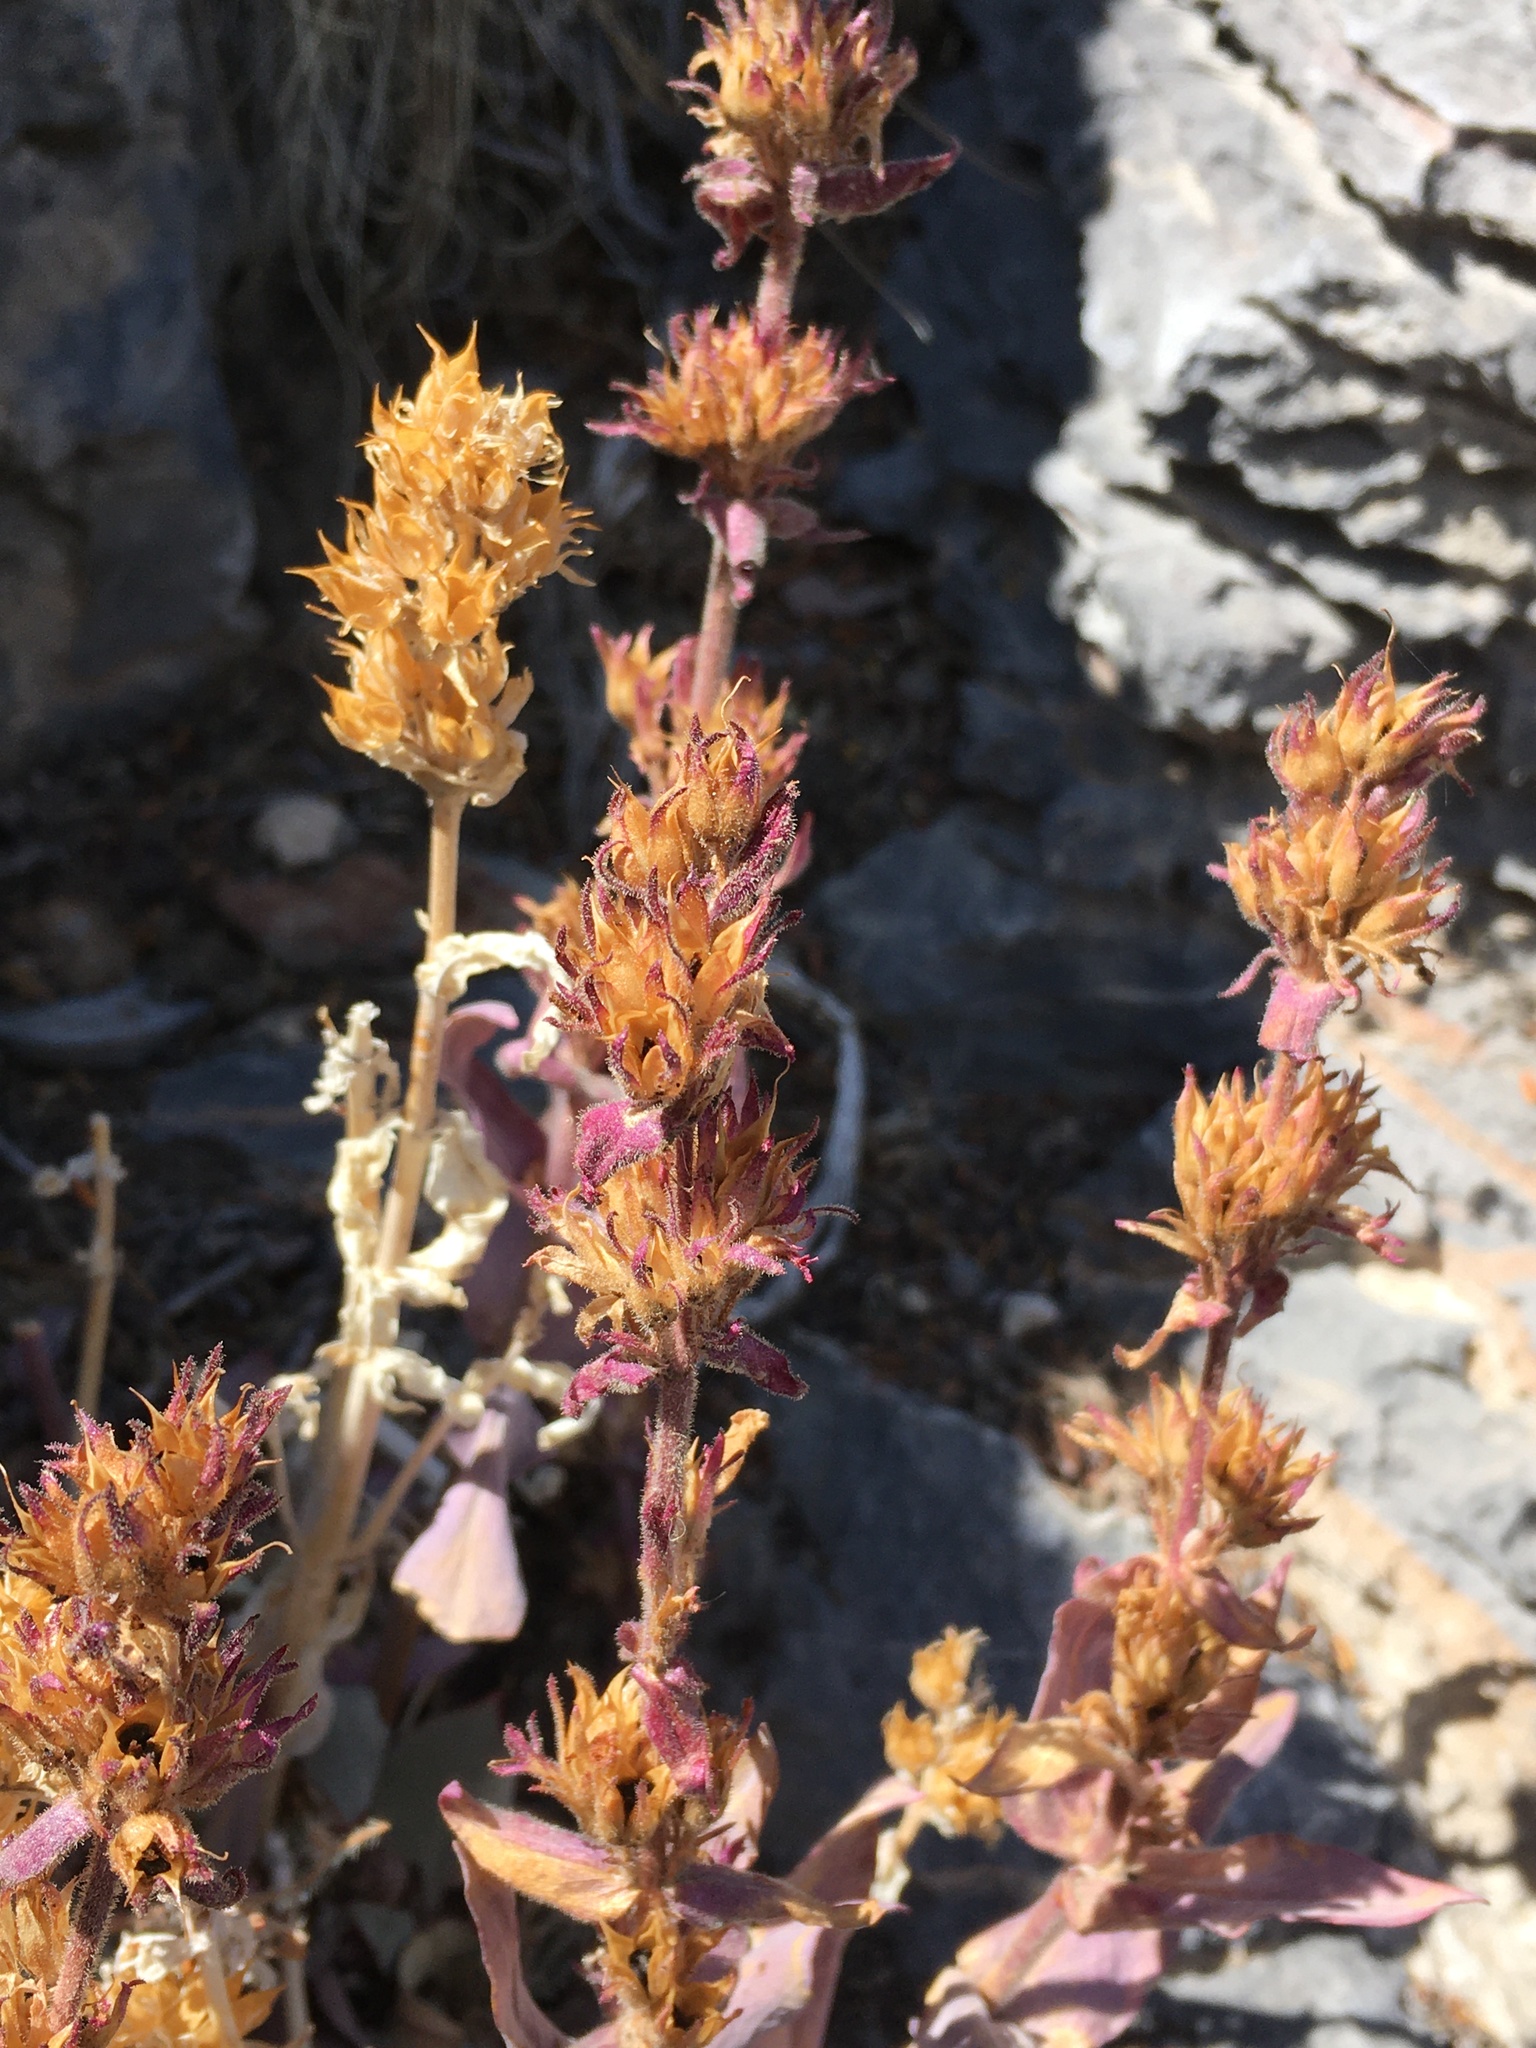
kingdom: Plantae
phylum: Tracheophyta
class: Magnoliopsida
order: Lamiales
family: Plantaginaceae
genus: Penstemon
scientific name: Penstemon calcareus
